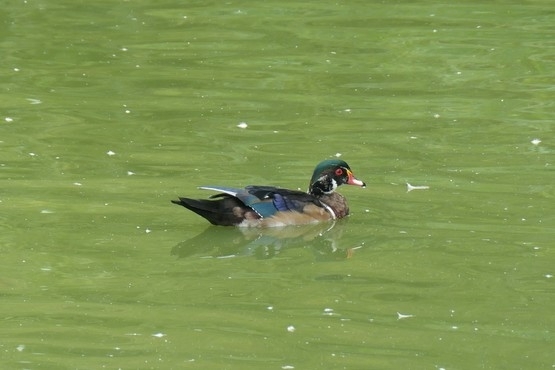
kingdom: Animalia
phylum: Chordata
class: Aves
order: Anseriformes
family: Anatidae
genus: Aix
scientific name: Aix sponsa
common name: Wood duck
